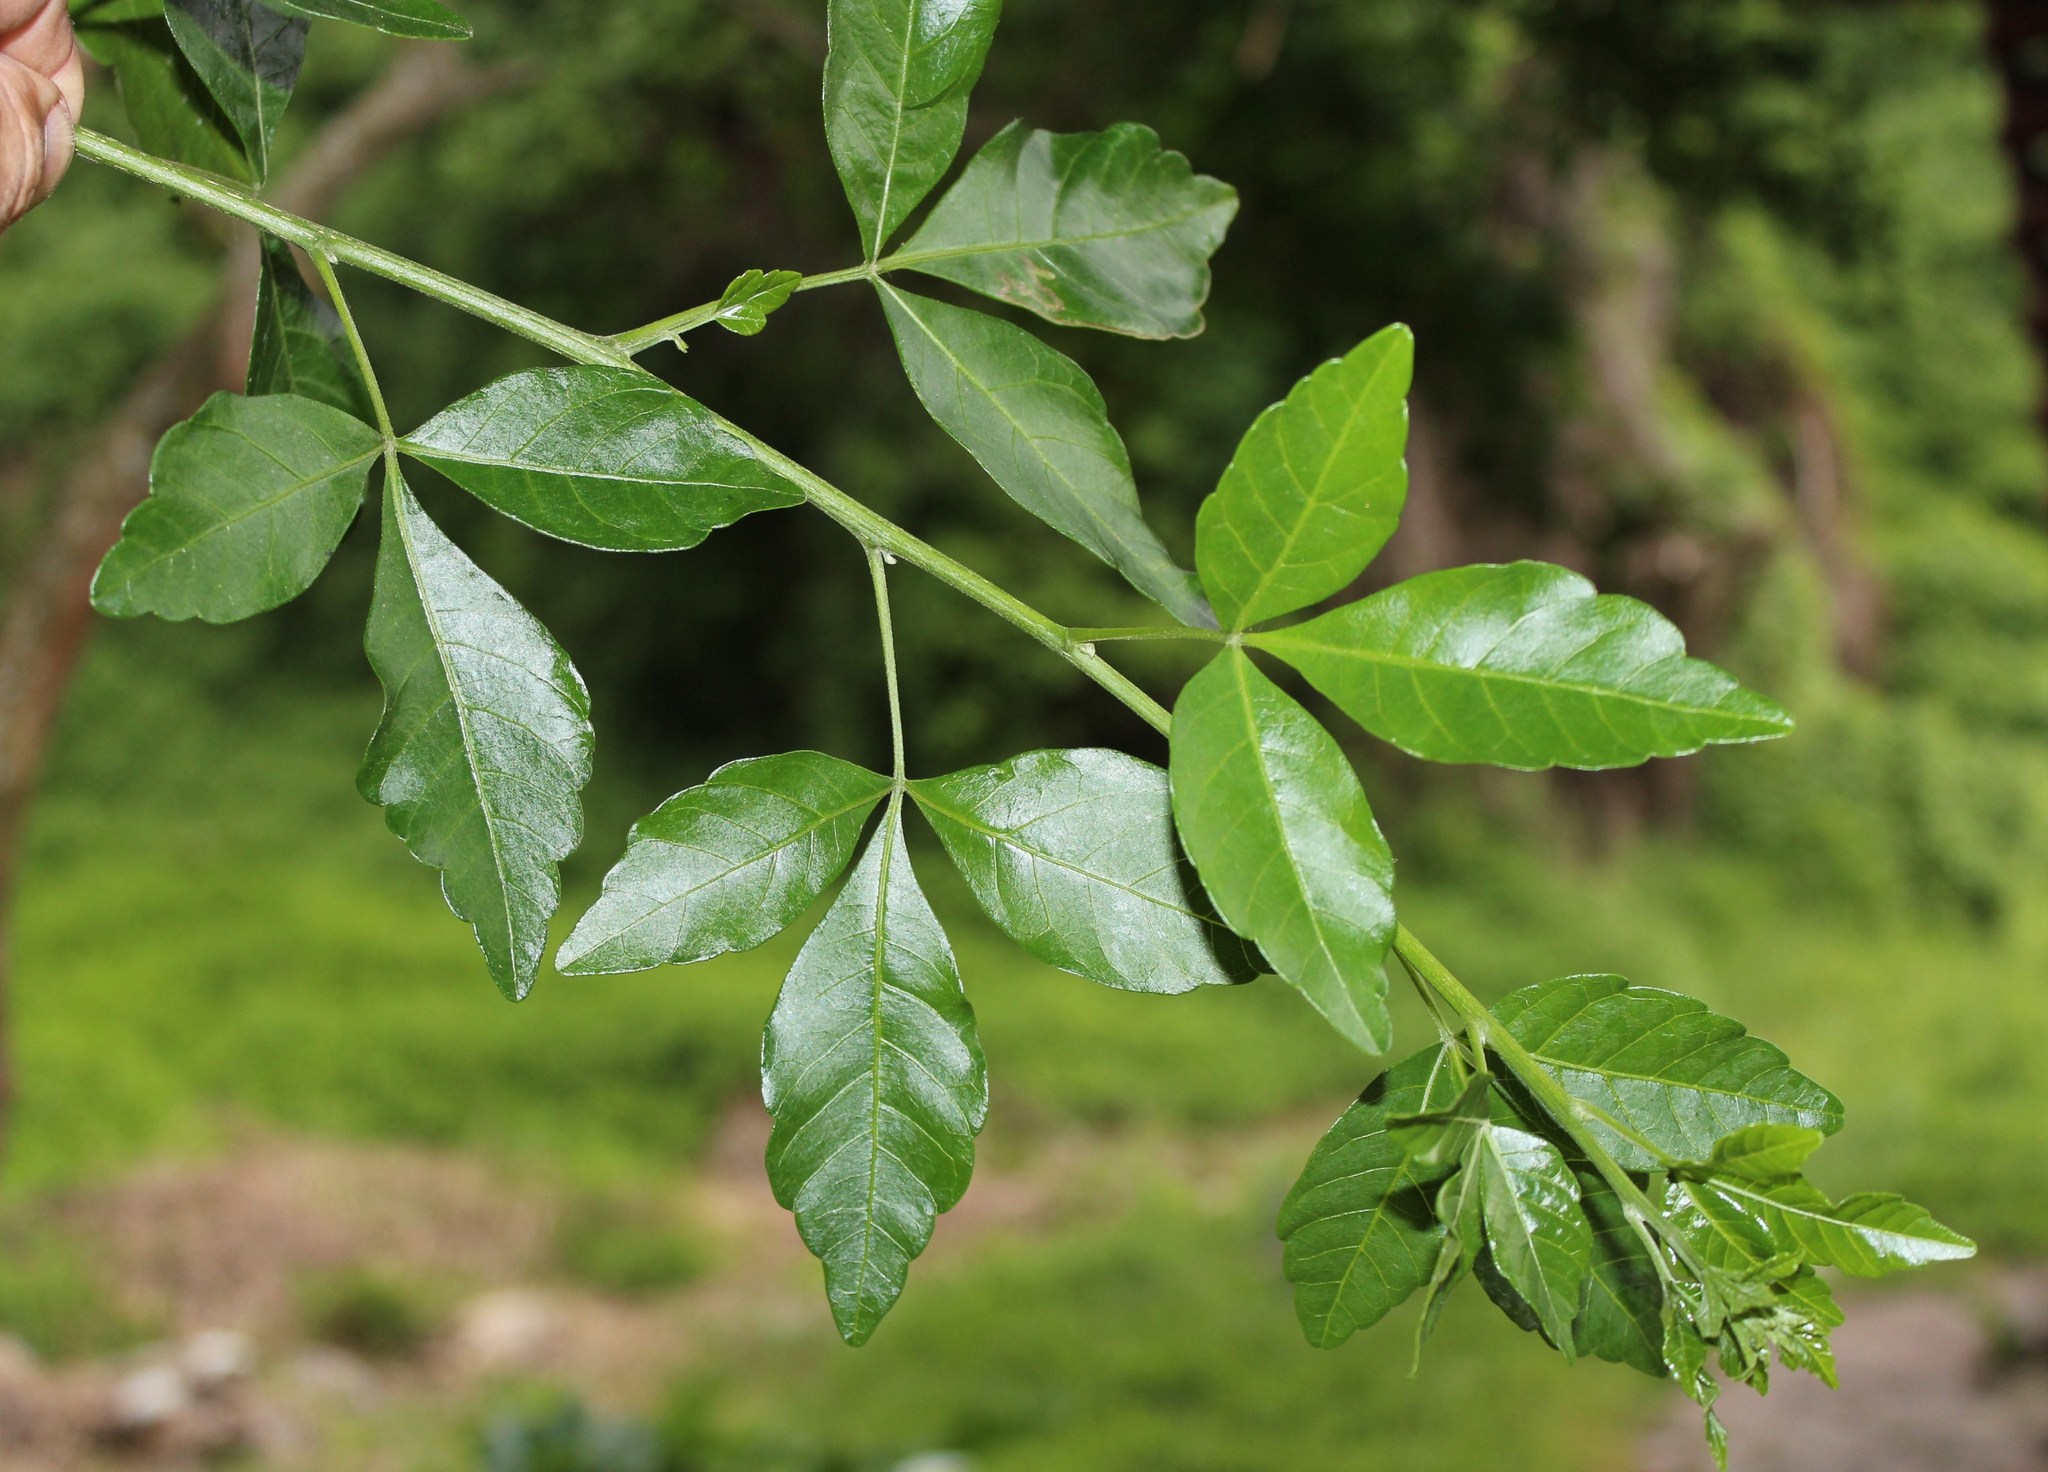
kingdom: Plantae
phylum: Tracheophyta
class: Magnoliopsida
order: Sapindales
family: Sapindaceae
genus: Allophylus
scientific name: Allophylus decipiens
